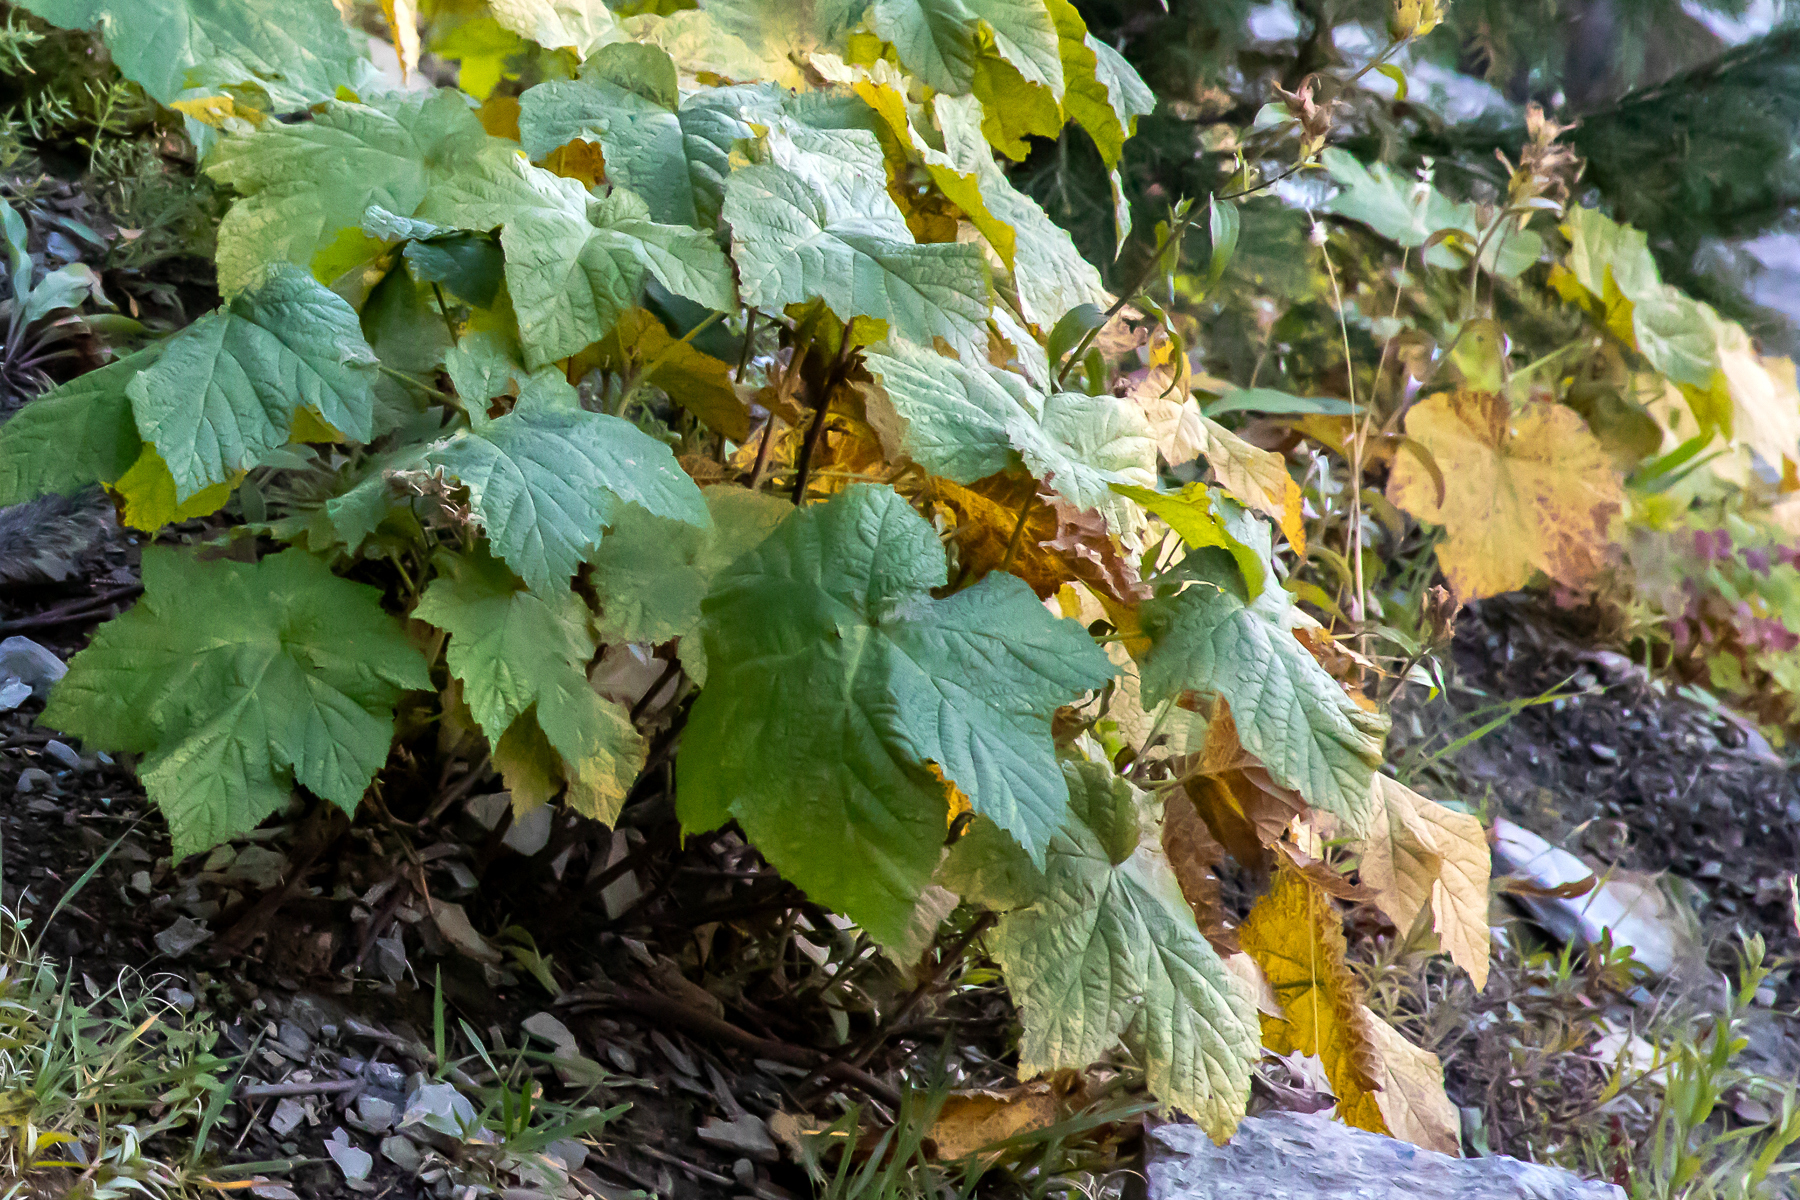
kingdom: Plantae
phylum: Tracheophyta
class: Magnoliopsida
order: Rosales
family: Rosaceae
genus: Rubus
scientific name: Rubus parviflorus
